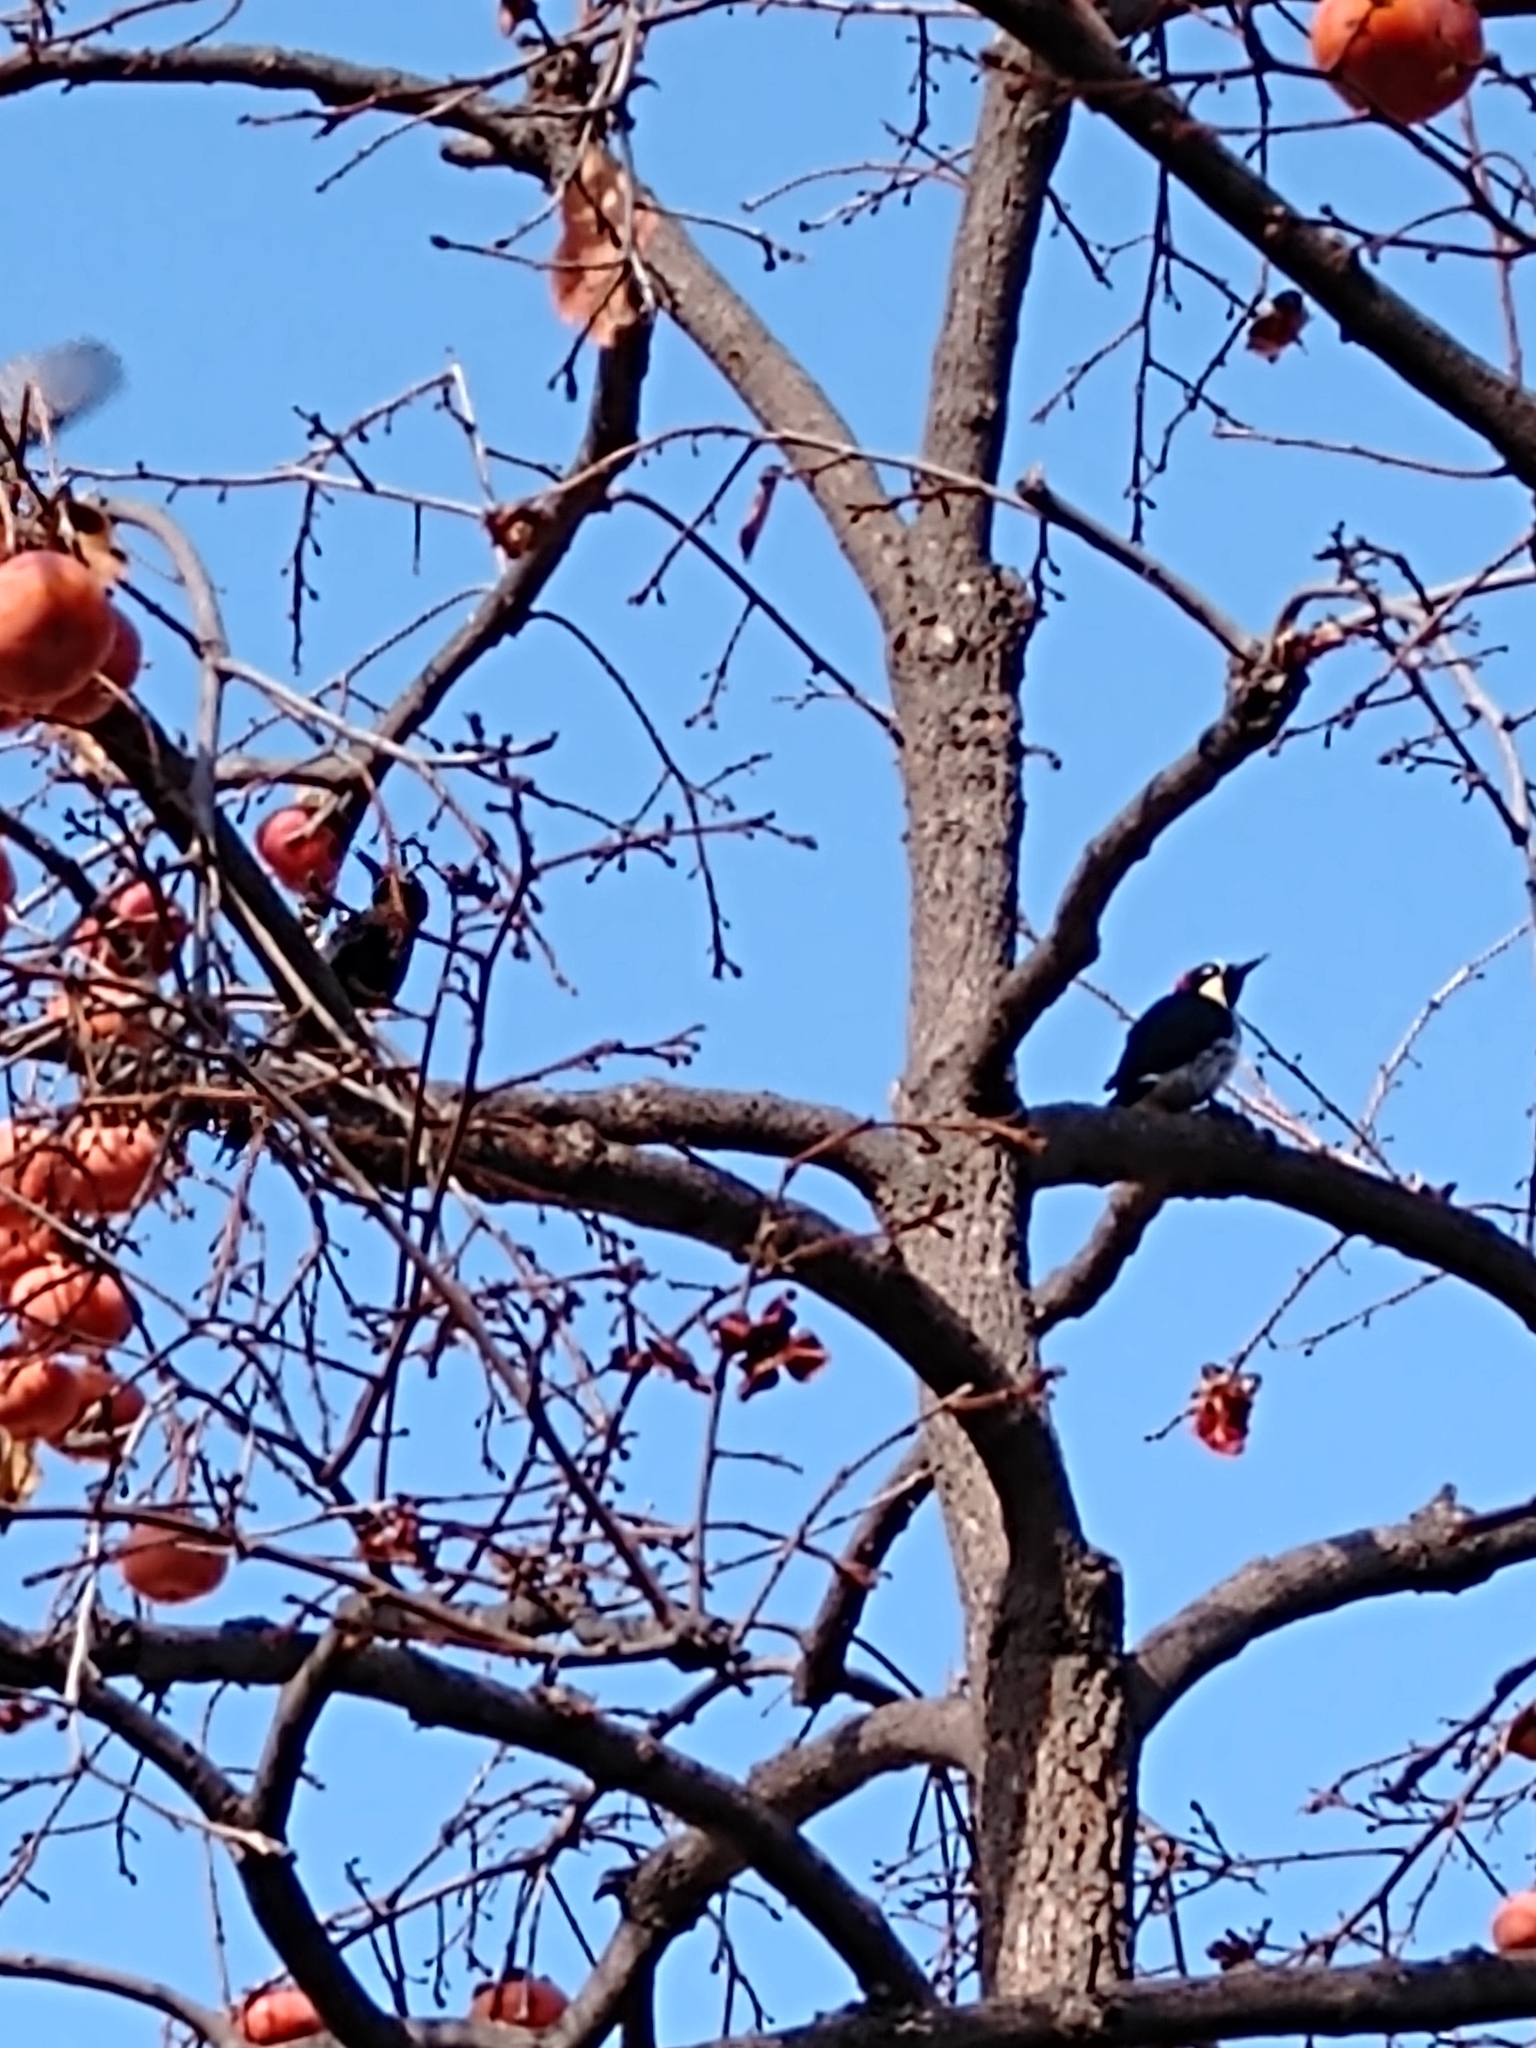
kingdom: Animalia
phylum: Chordata
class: Aves
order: Piciformes
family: Picidae
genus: Melanerpes
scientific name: Melanerpes formicivorus
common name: Acorn woodpecker
